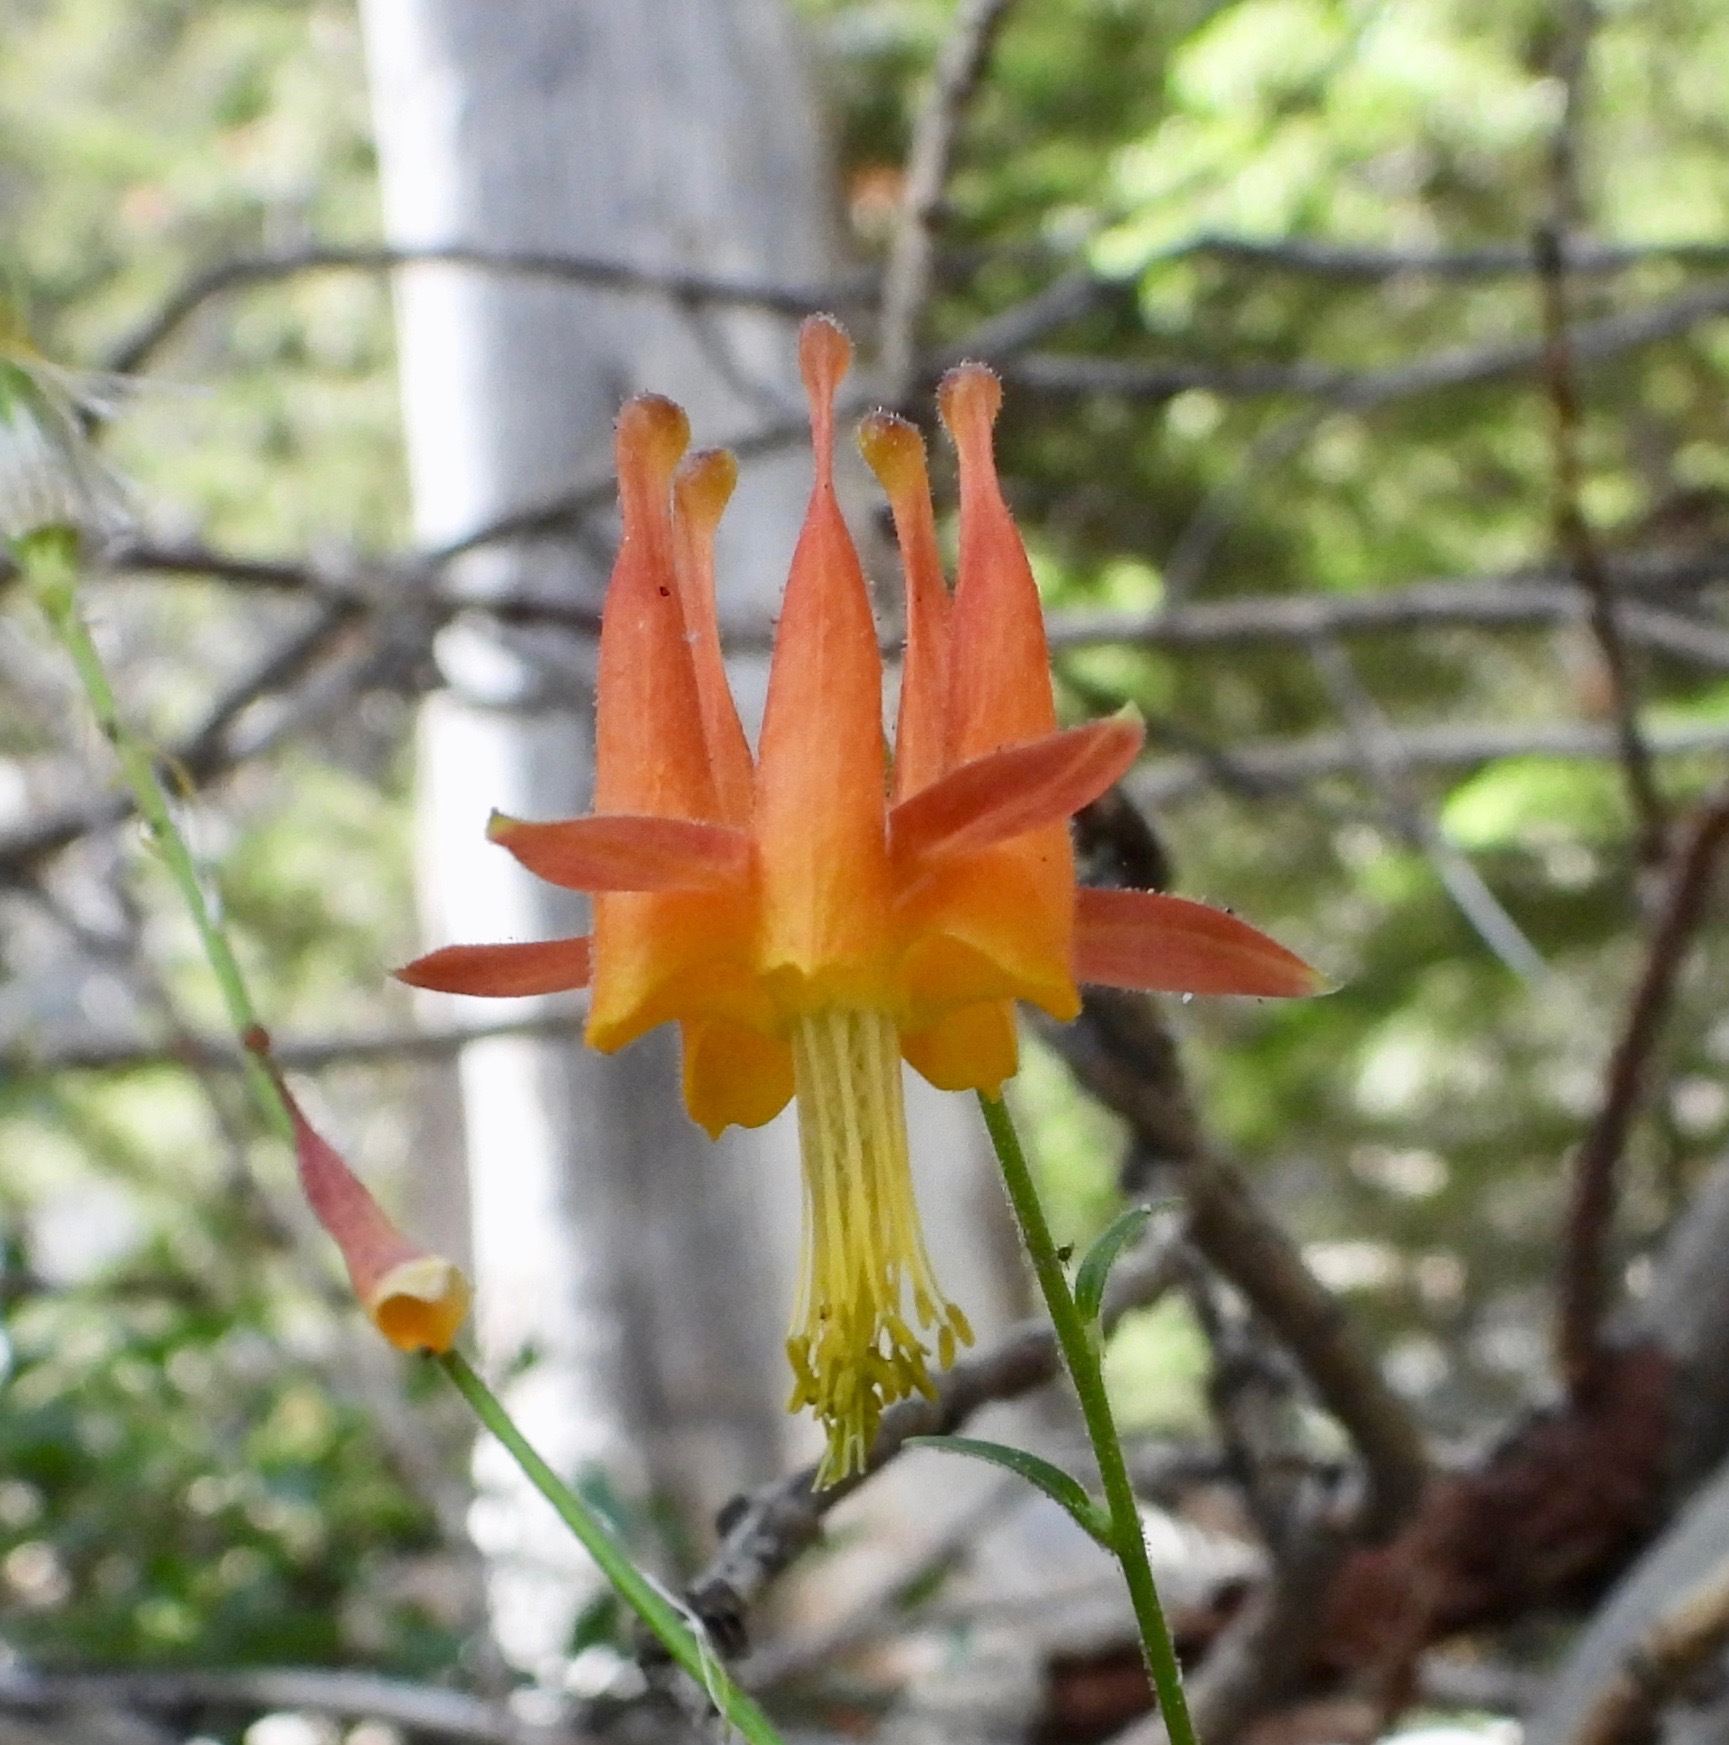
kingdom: Plantae
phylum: Tracheophyta
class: Magnoliopsida
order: Ranunculales
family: Ranunculaceae
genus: Aquilegia
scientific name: Aquilegia formosa
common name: Sitka columbine
